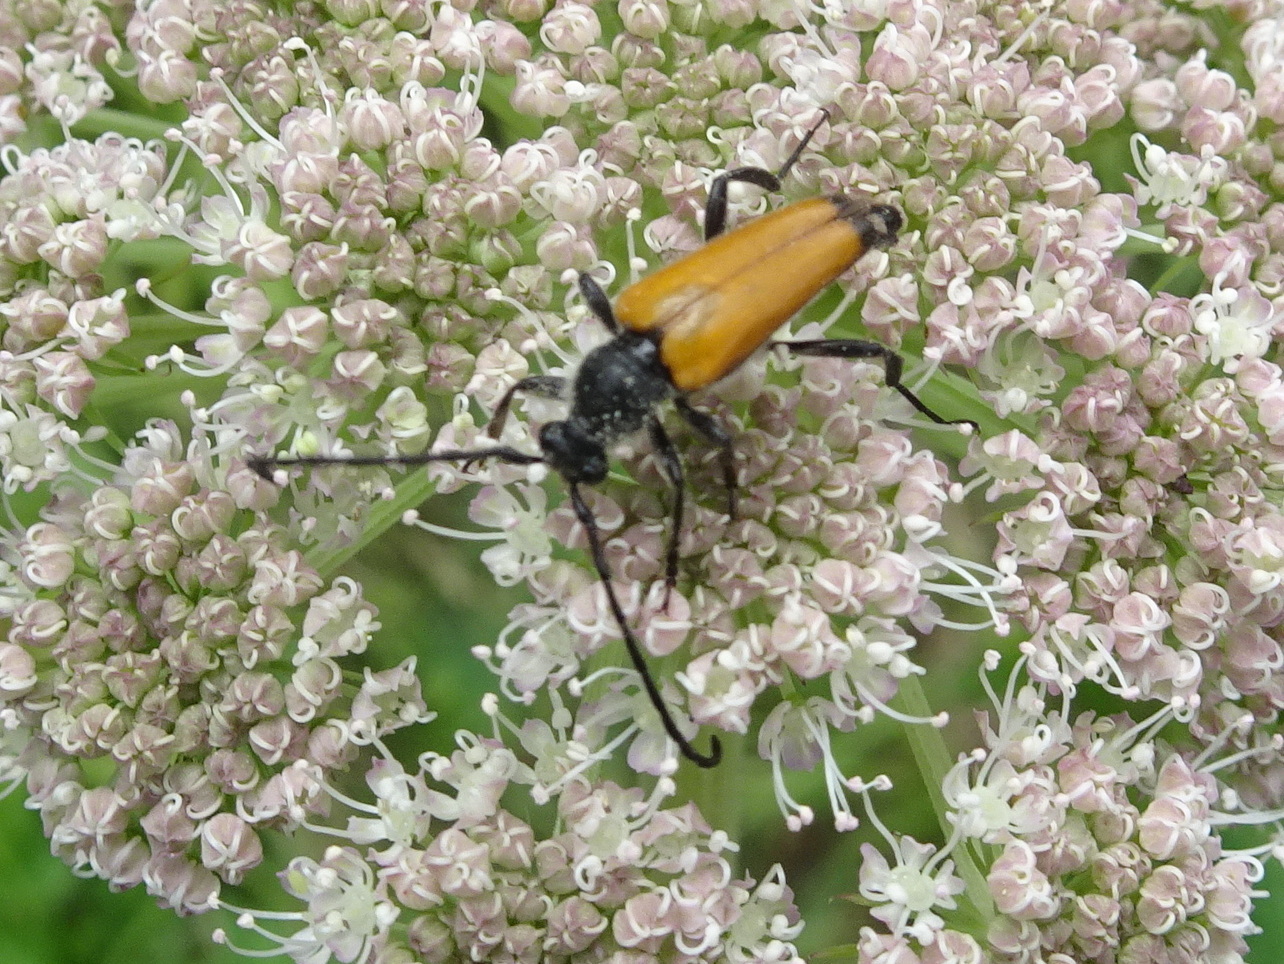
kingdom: Animalia
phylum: Arthropoda
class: Insecta
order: Coleoptera
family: Cerambycidae
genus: Paracorymbia
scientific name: Paracorymbia fulva
